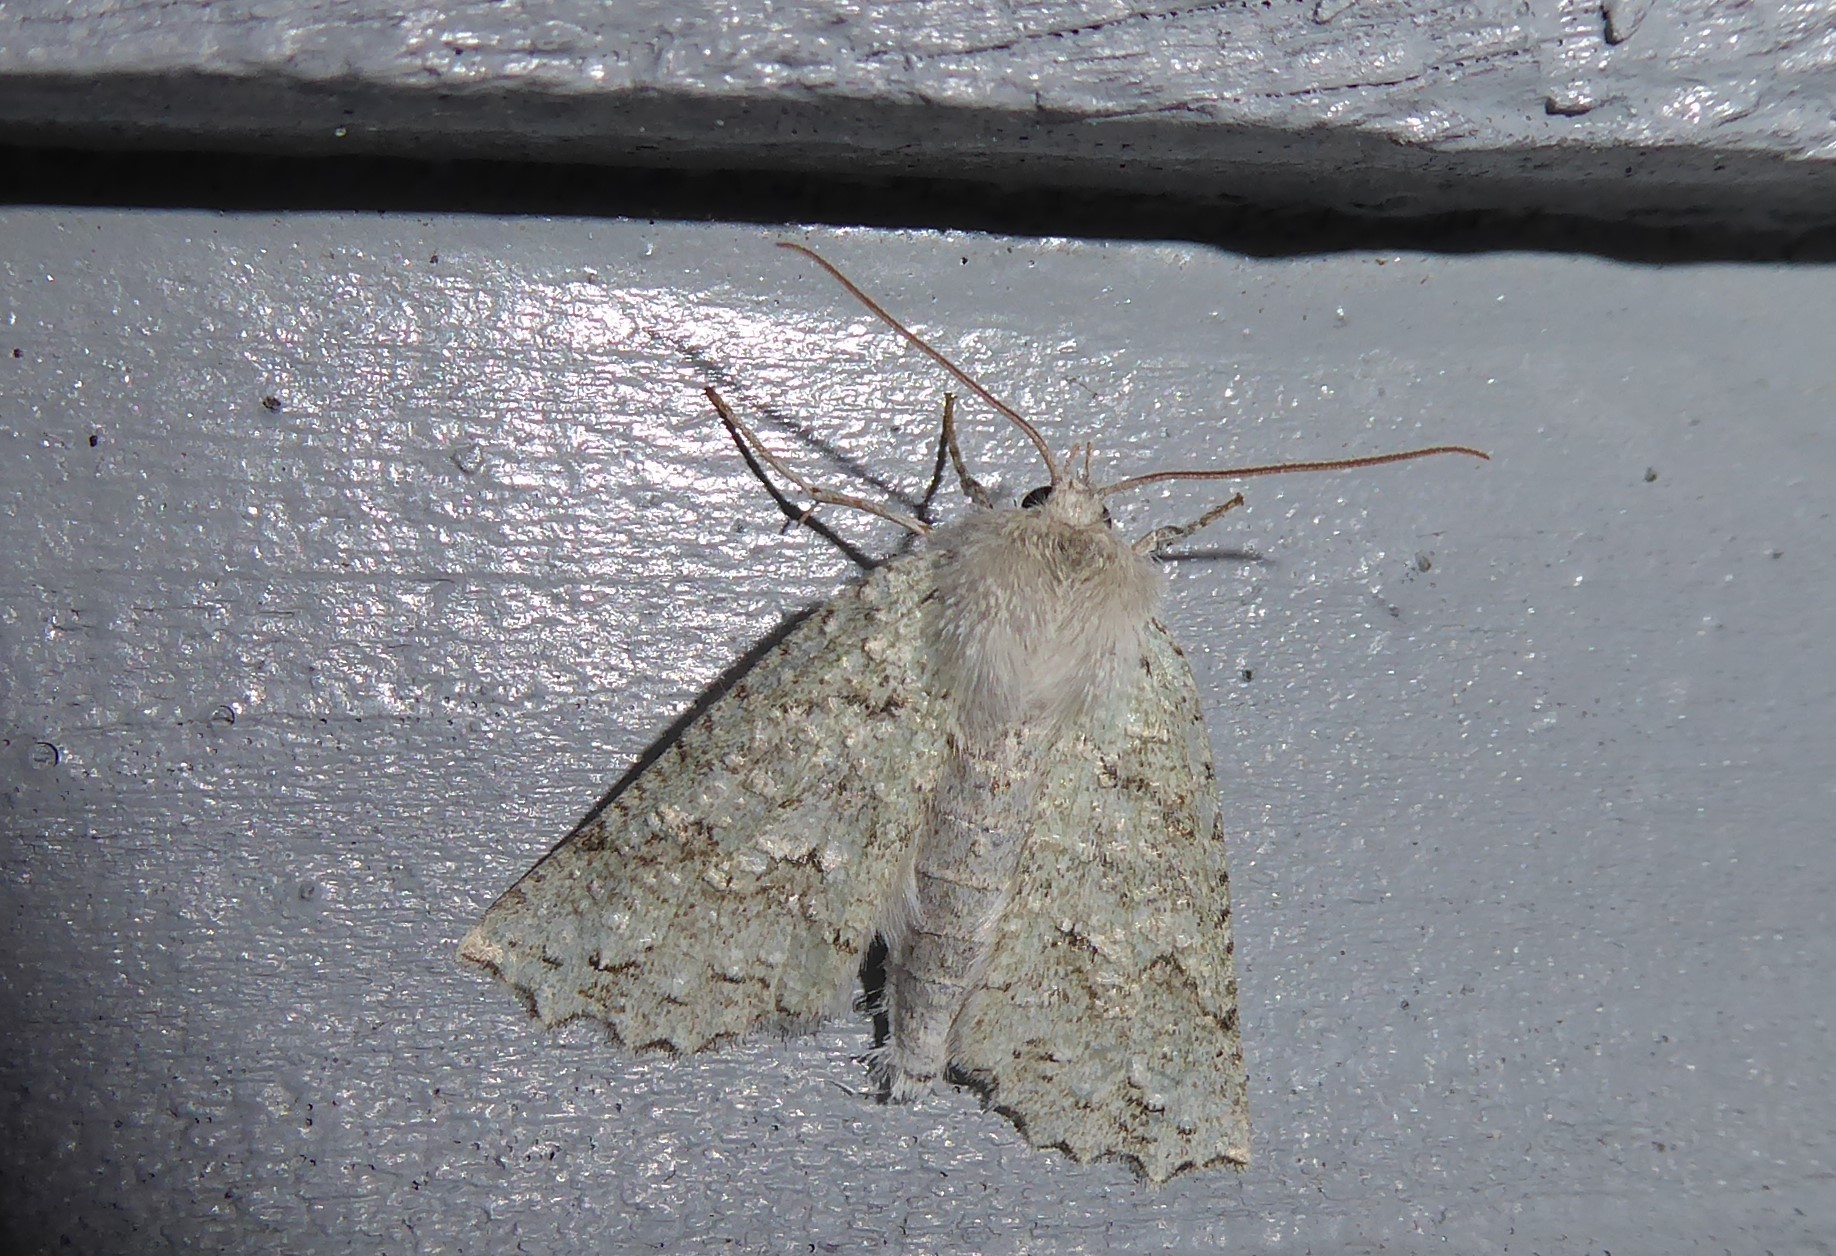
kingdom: Animalia
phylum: Arthropoda
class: Insecta
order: Lepidoptera
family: Geometridae
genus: Declana
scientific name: Declana niveata
